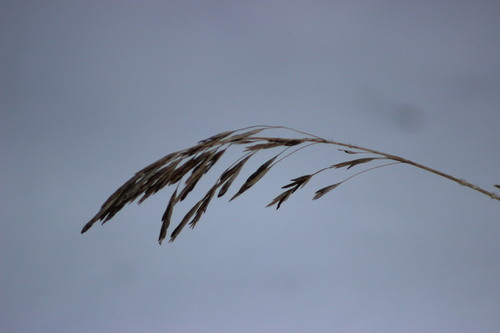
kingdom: Fungi
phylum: Ascomycota
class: Sordariomycetes
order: Hypocreales
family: Clavicipitaceae
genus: Claviceps
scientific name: Claviceps
